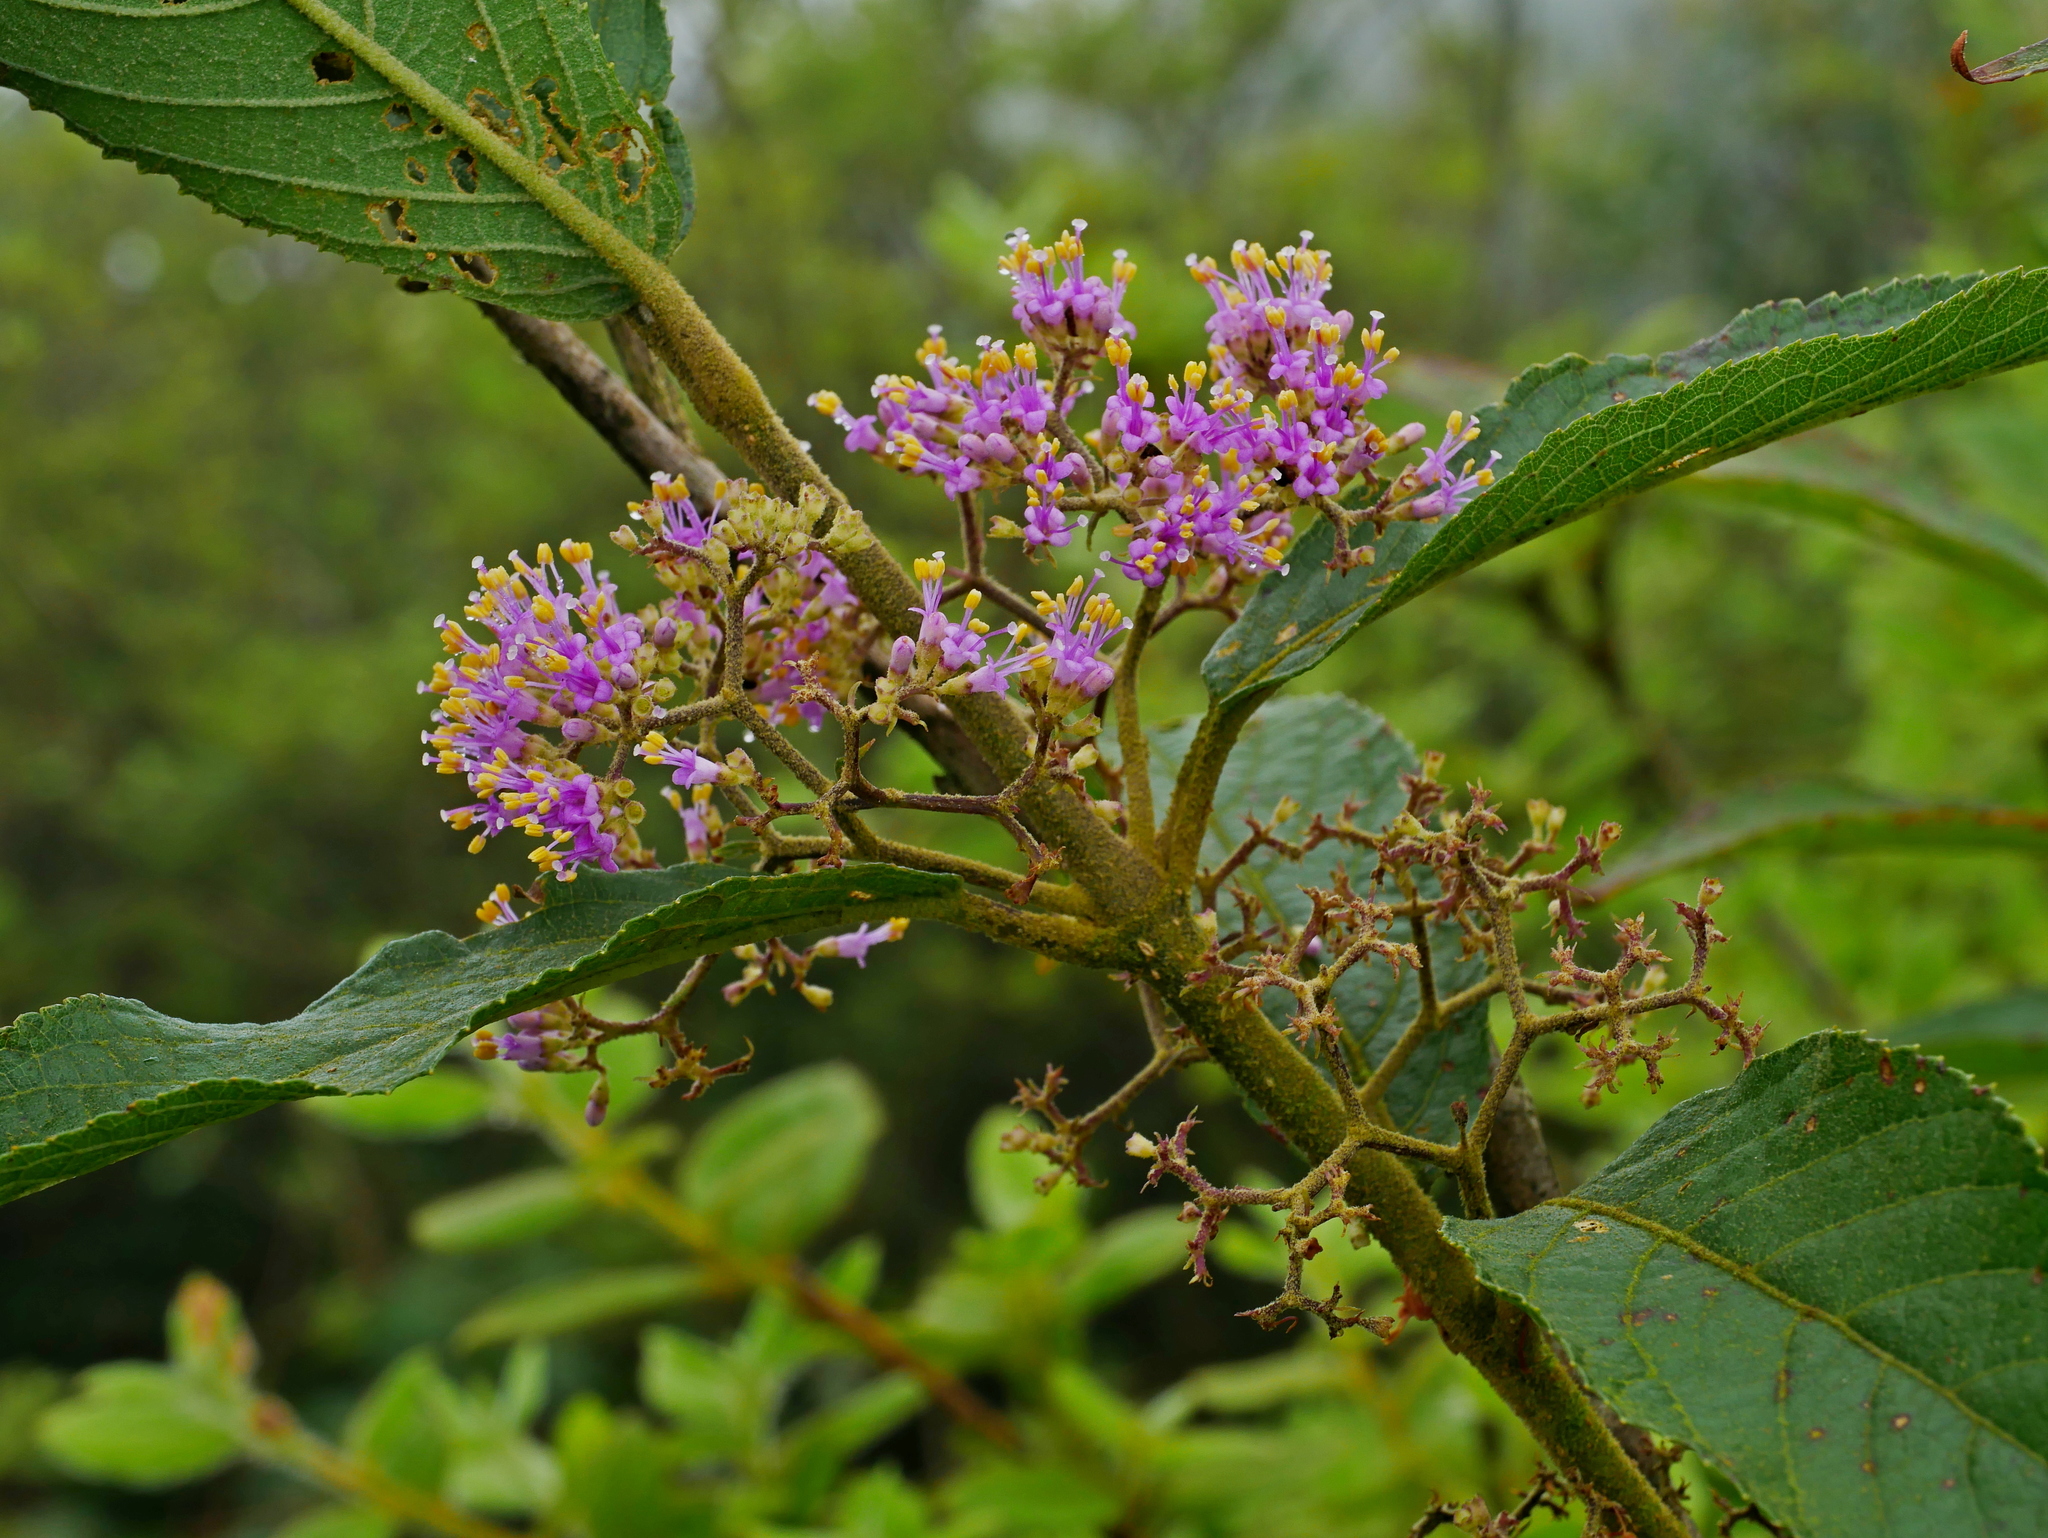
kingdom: Plantae
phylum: Tracheophyta
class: Magnoliopsida
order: Lamiales
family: Lamiaceae
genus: Callicarpa
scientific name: Callicarpa tikusikensis
